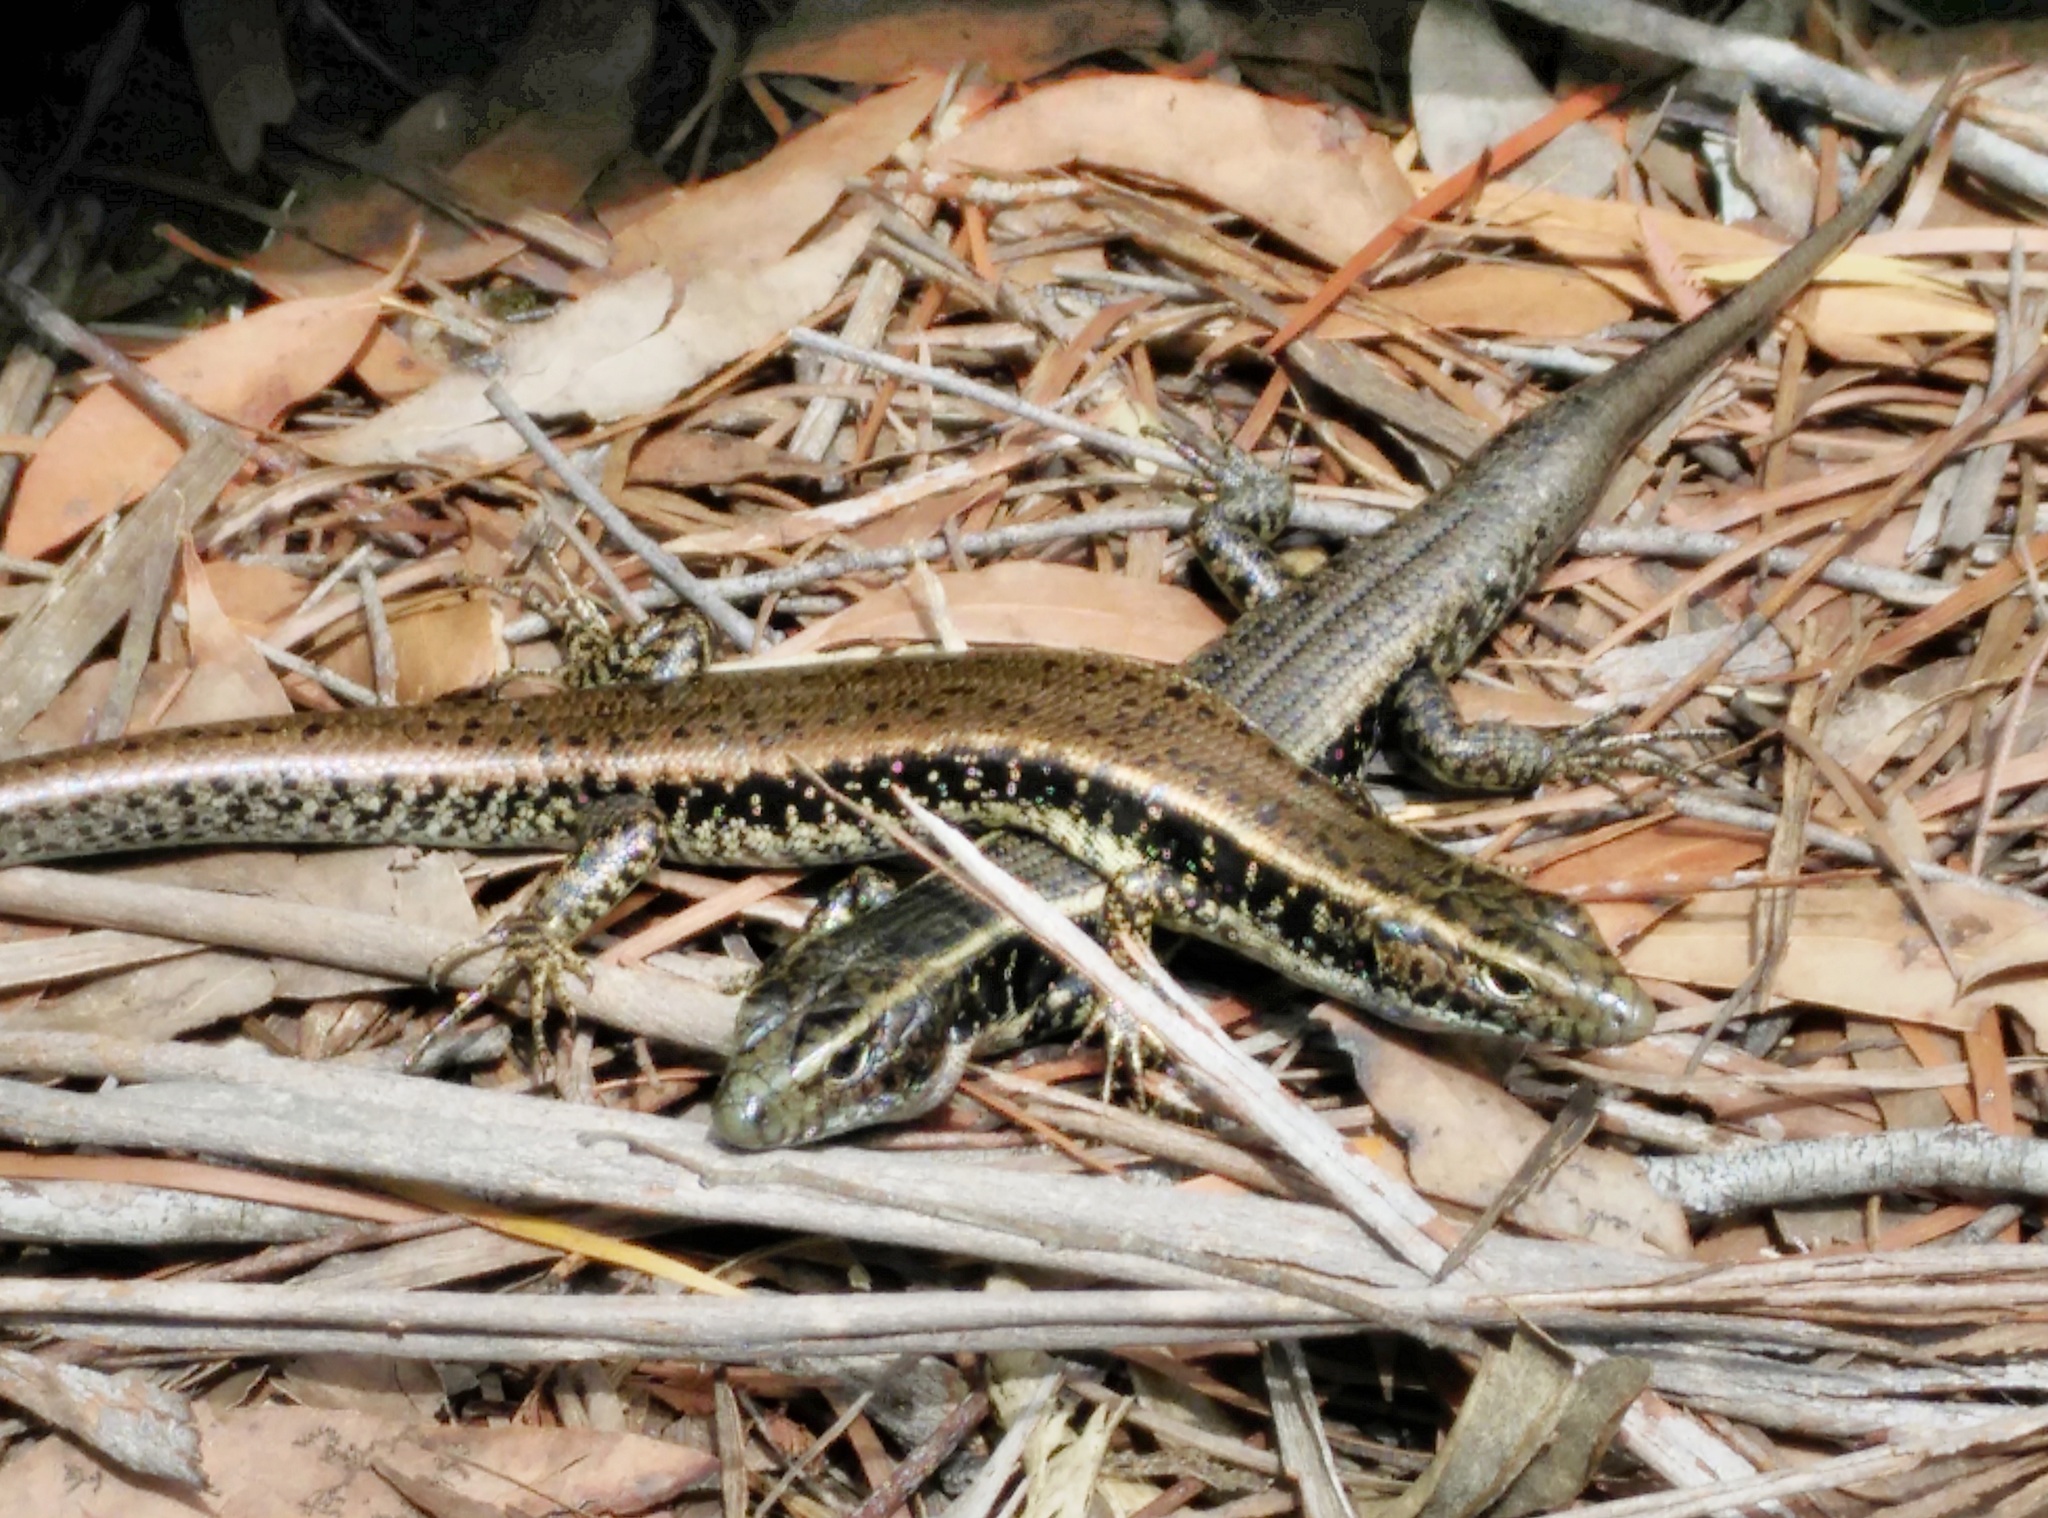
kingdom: Animalia
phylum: Chordata
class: Squamata
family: Scincidae
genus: Eulamprus
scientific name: Eulamprus quoyii
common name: Eastern water skink
